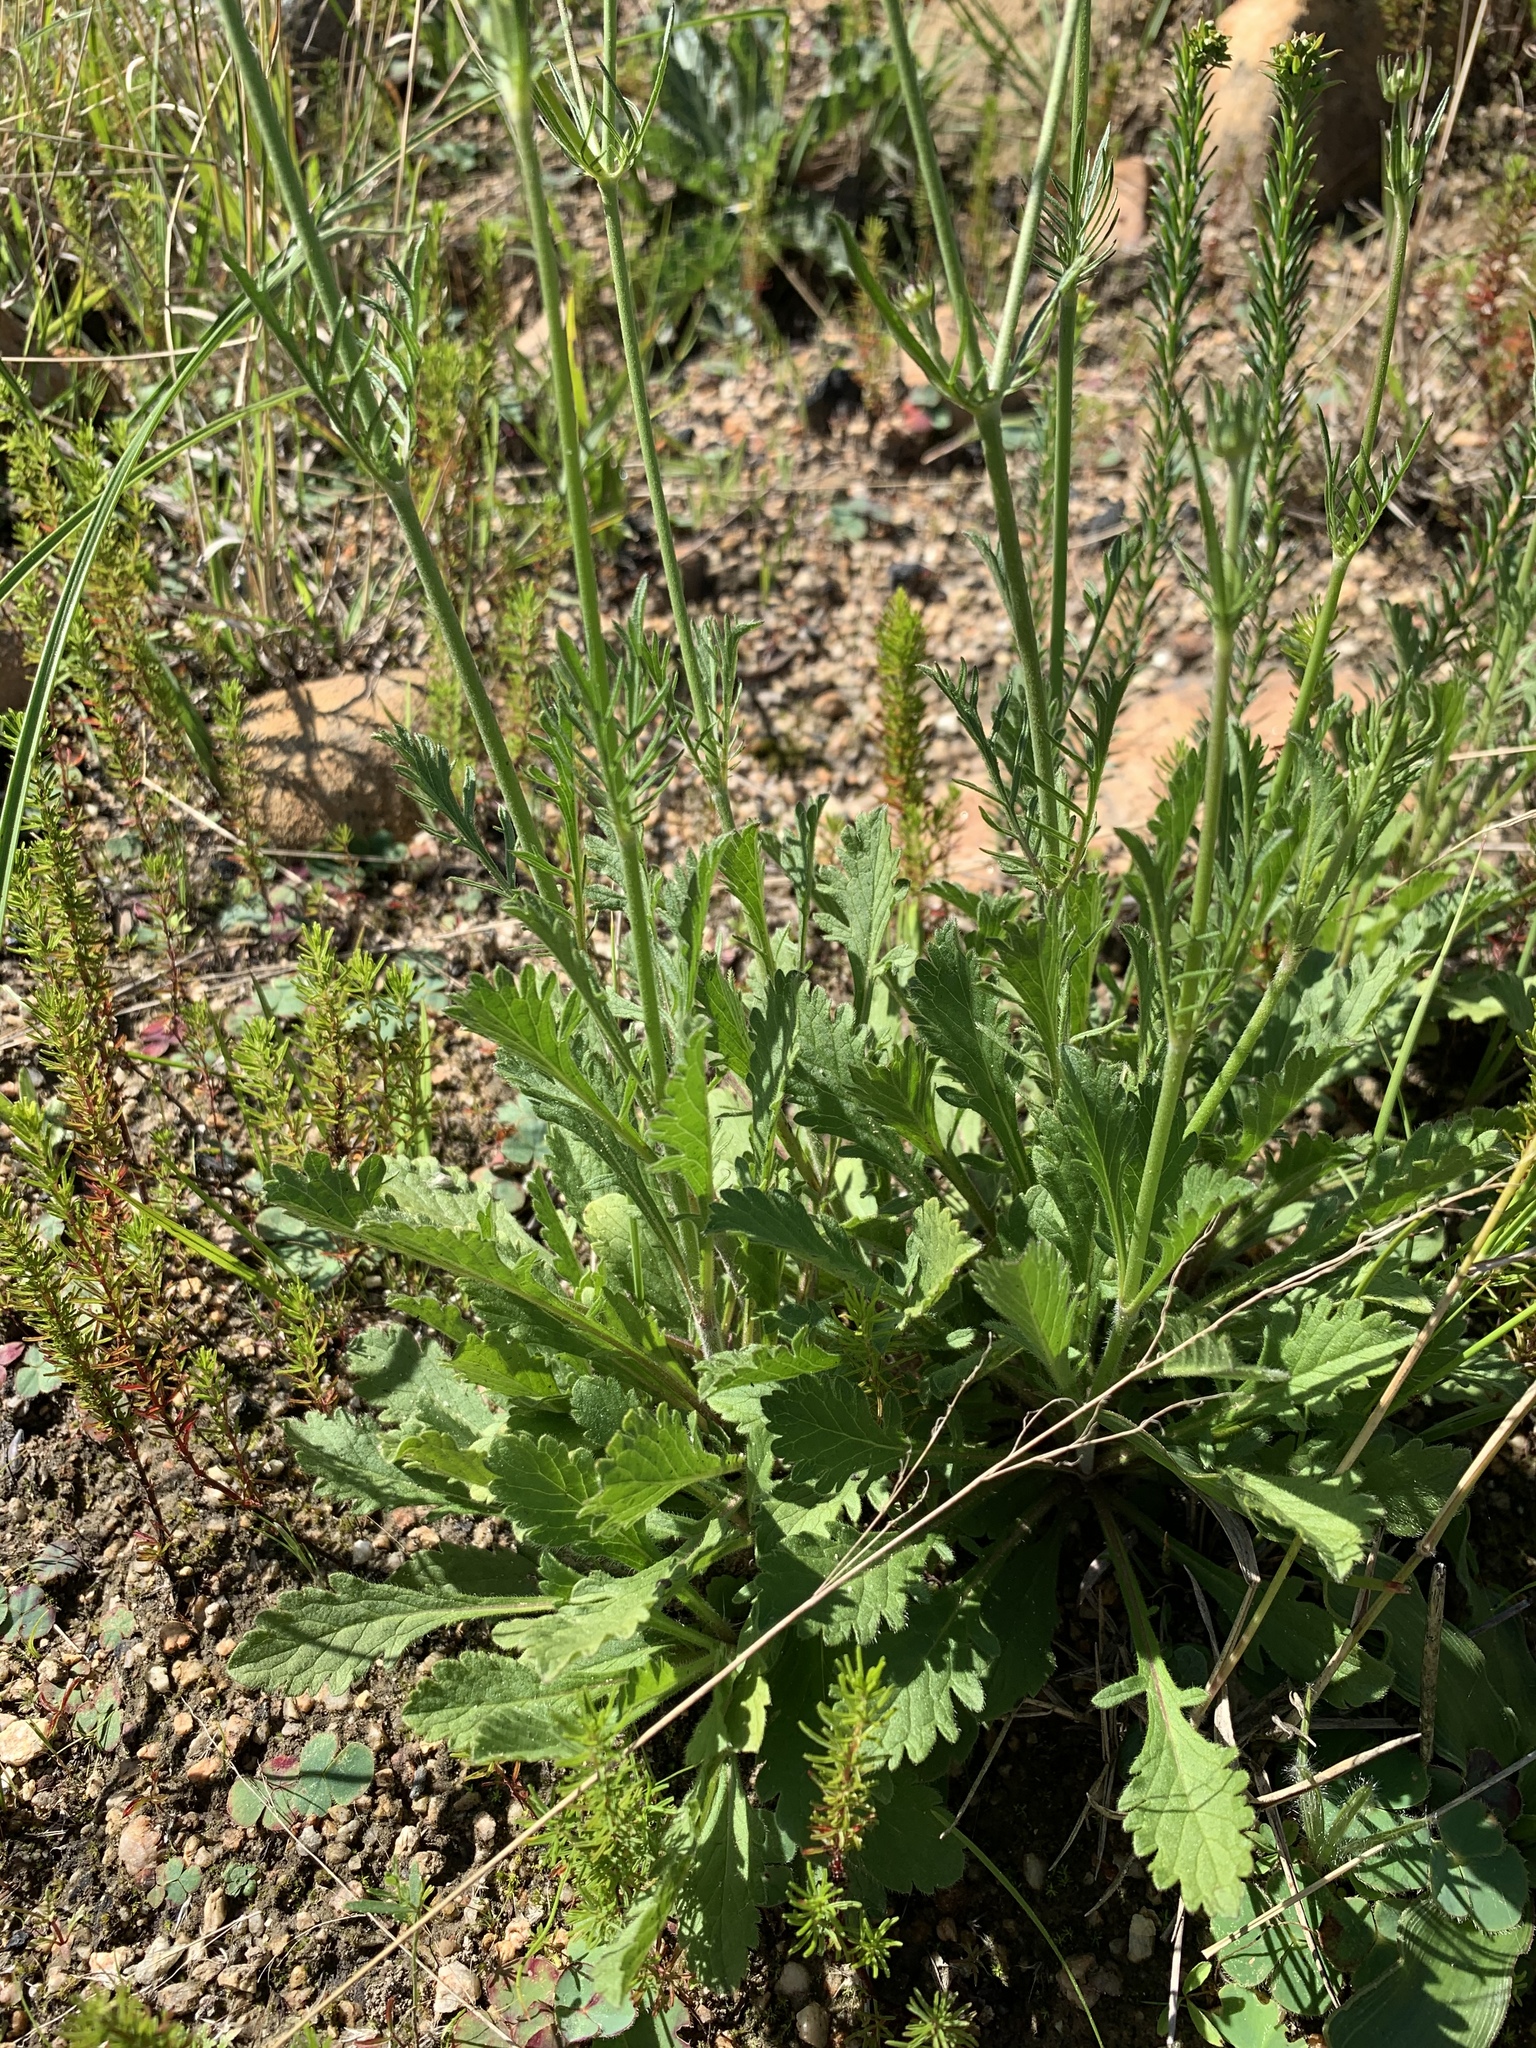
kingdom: Plantae
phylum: Tracheophyta
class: Magnoliopsida
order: Dipsacales
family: Caprifoliaceae
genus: Scabiosa
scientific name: Scabiosa columbaria
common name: Small scabious
